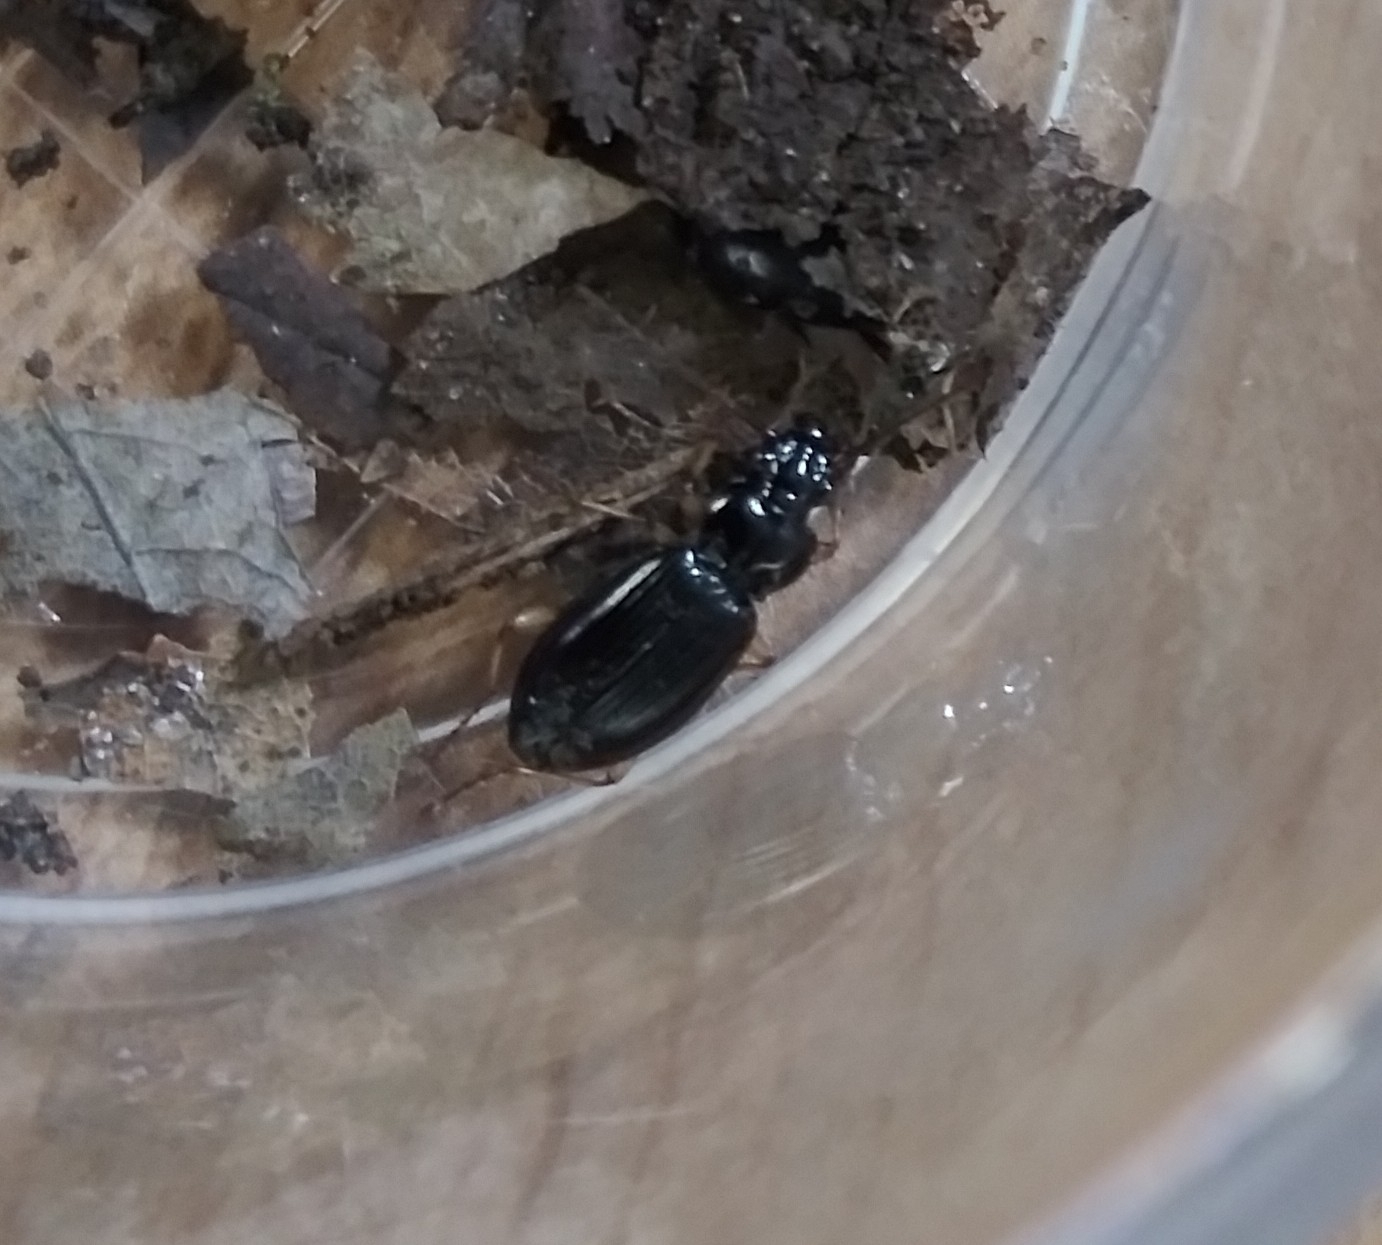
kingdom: Animalia
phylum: Arthropoda
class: Insecta
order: Coleoptera
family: Carabidae
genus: Patrobus
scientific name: Patrobus longicornis
